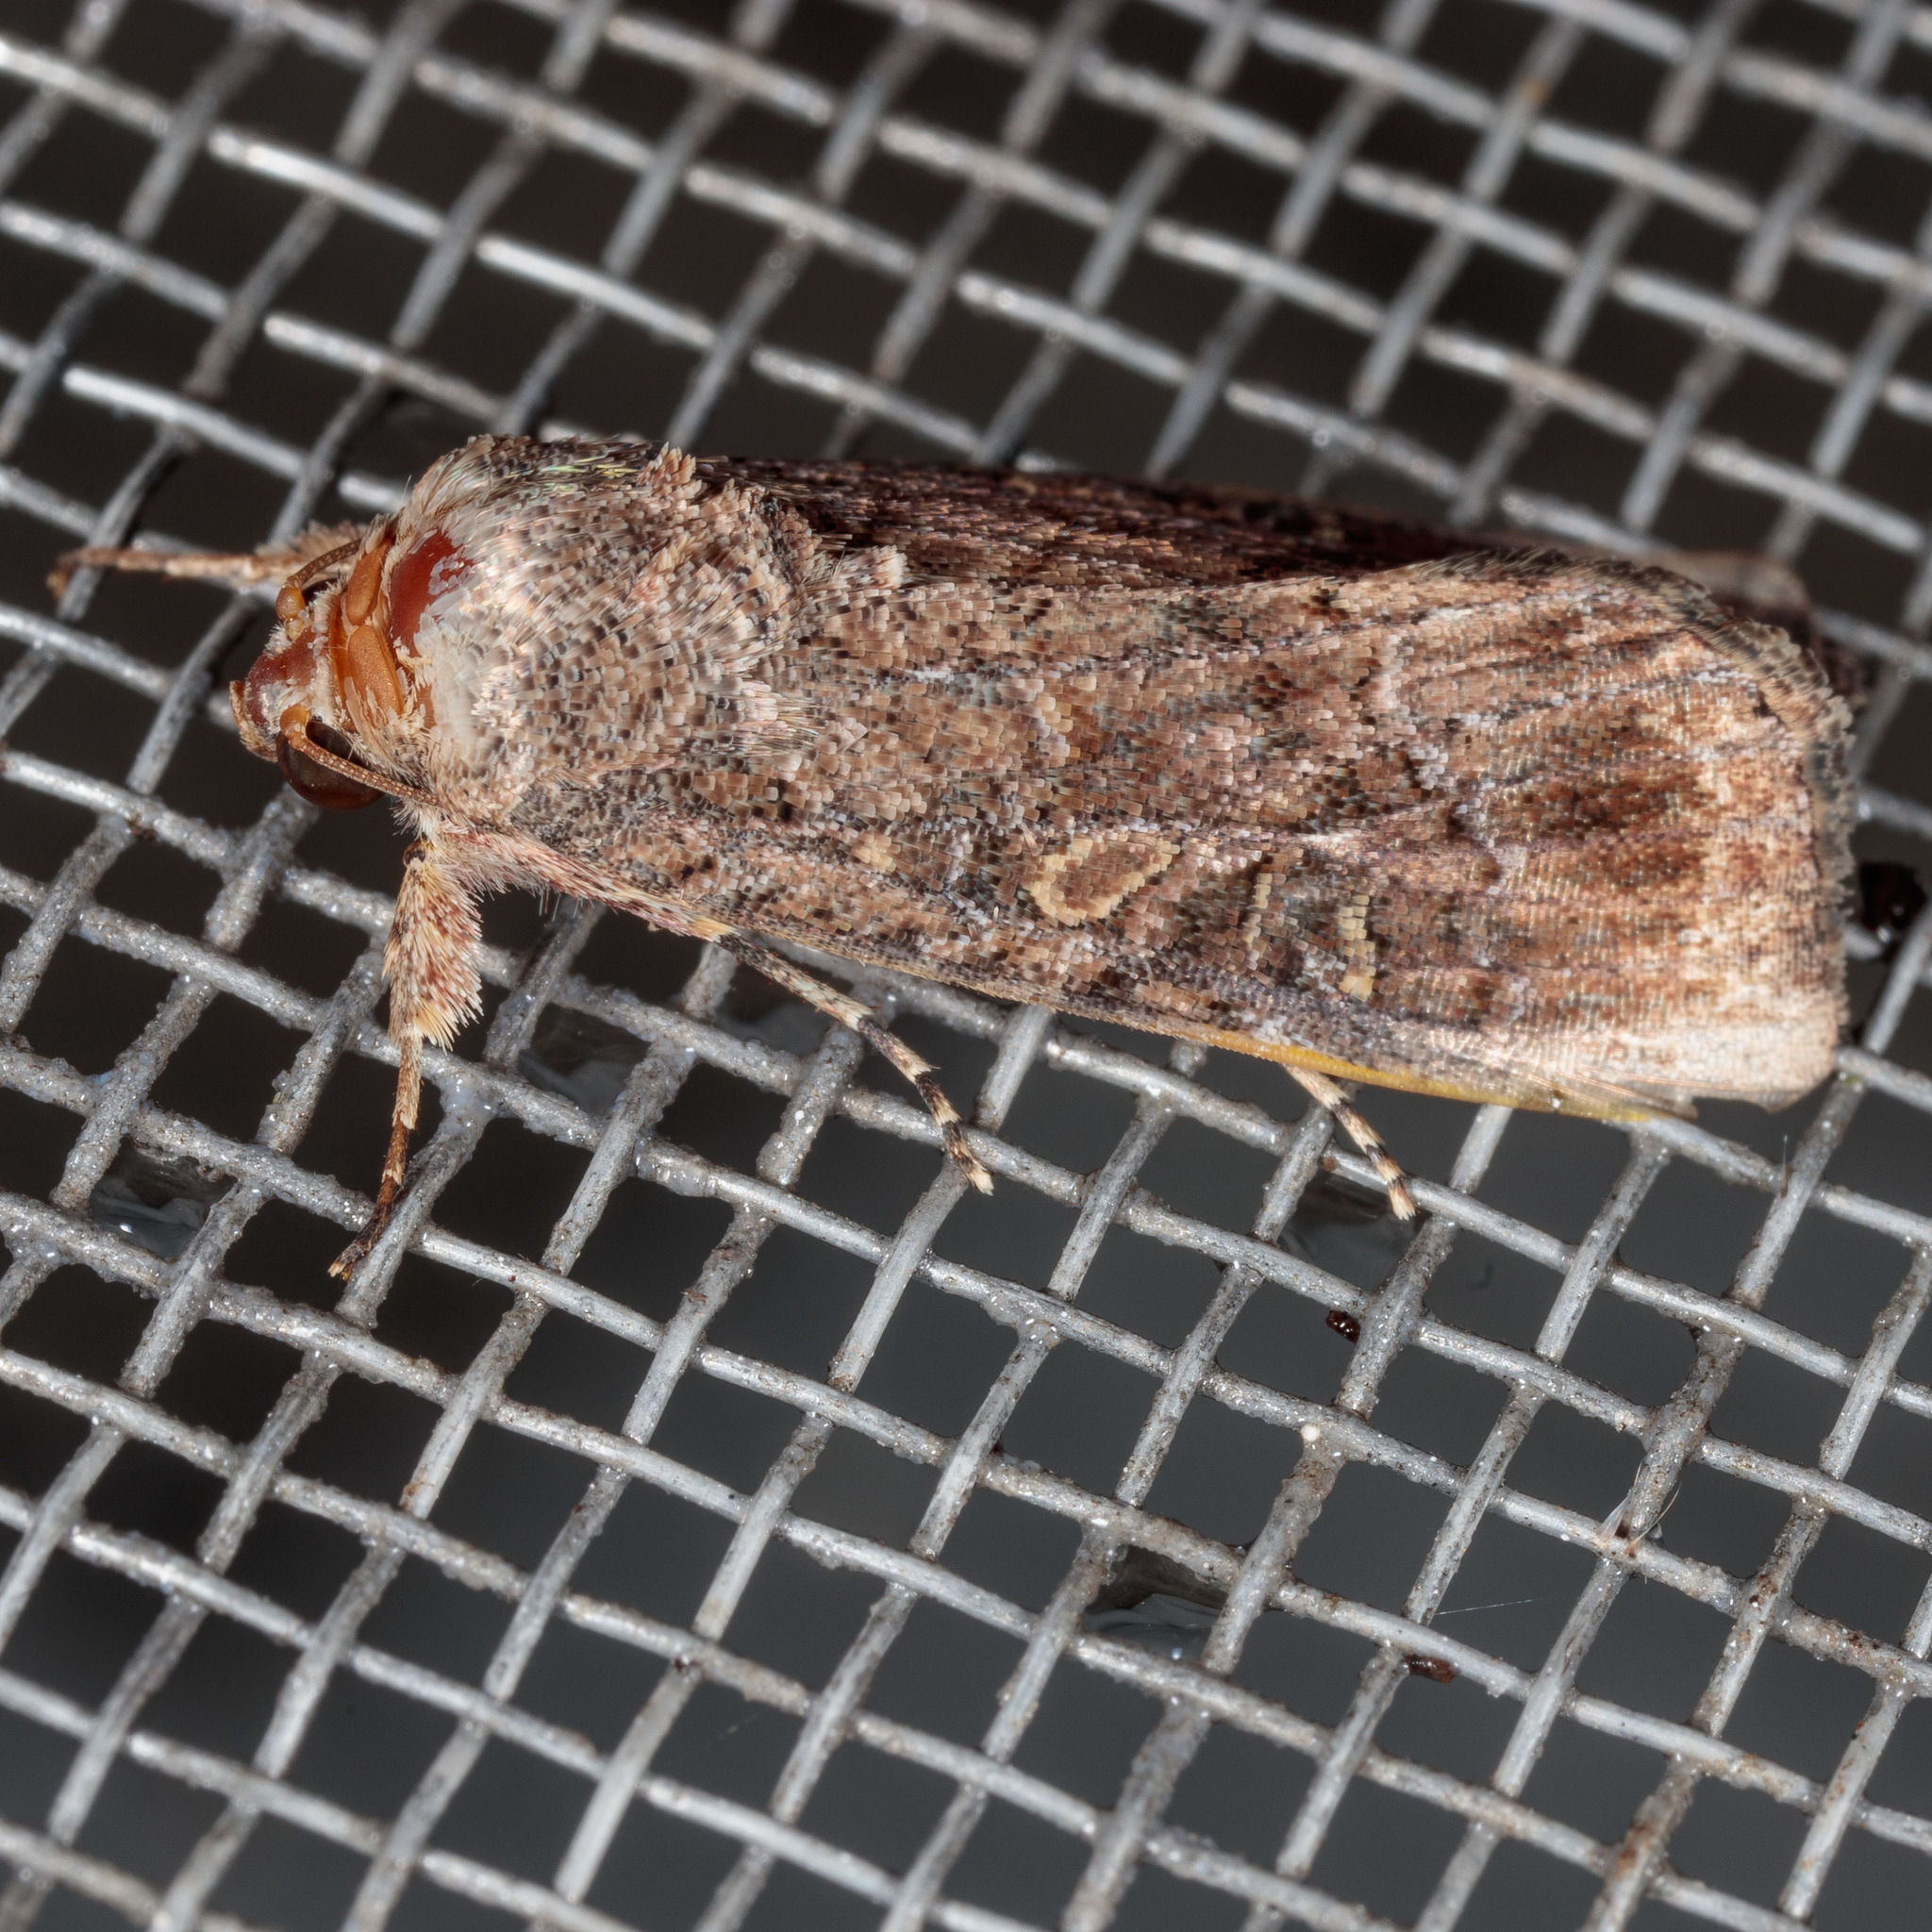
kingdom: Animalia
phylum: Arthropoda
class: Insecta
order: Lepidoptera
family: Noctuidae
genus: Spodoptera
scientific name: Spodoptera frugiperda
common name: Fall armyworm
